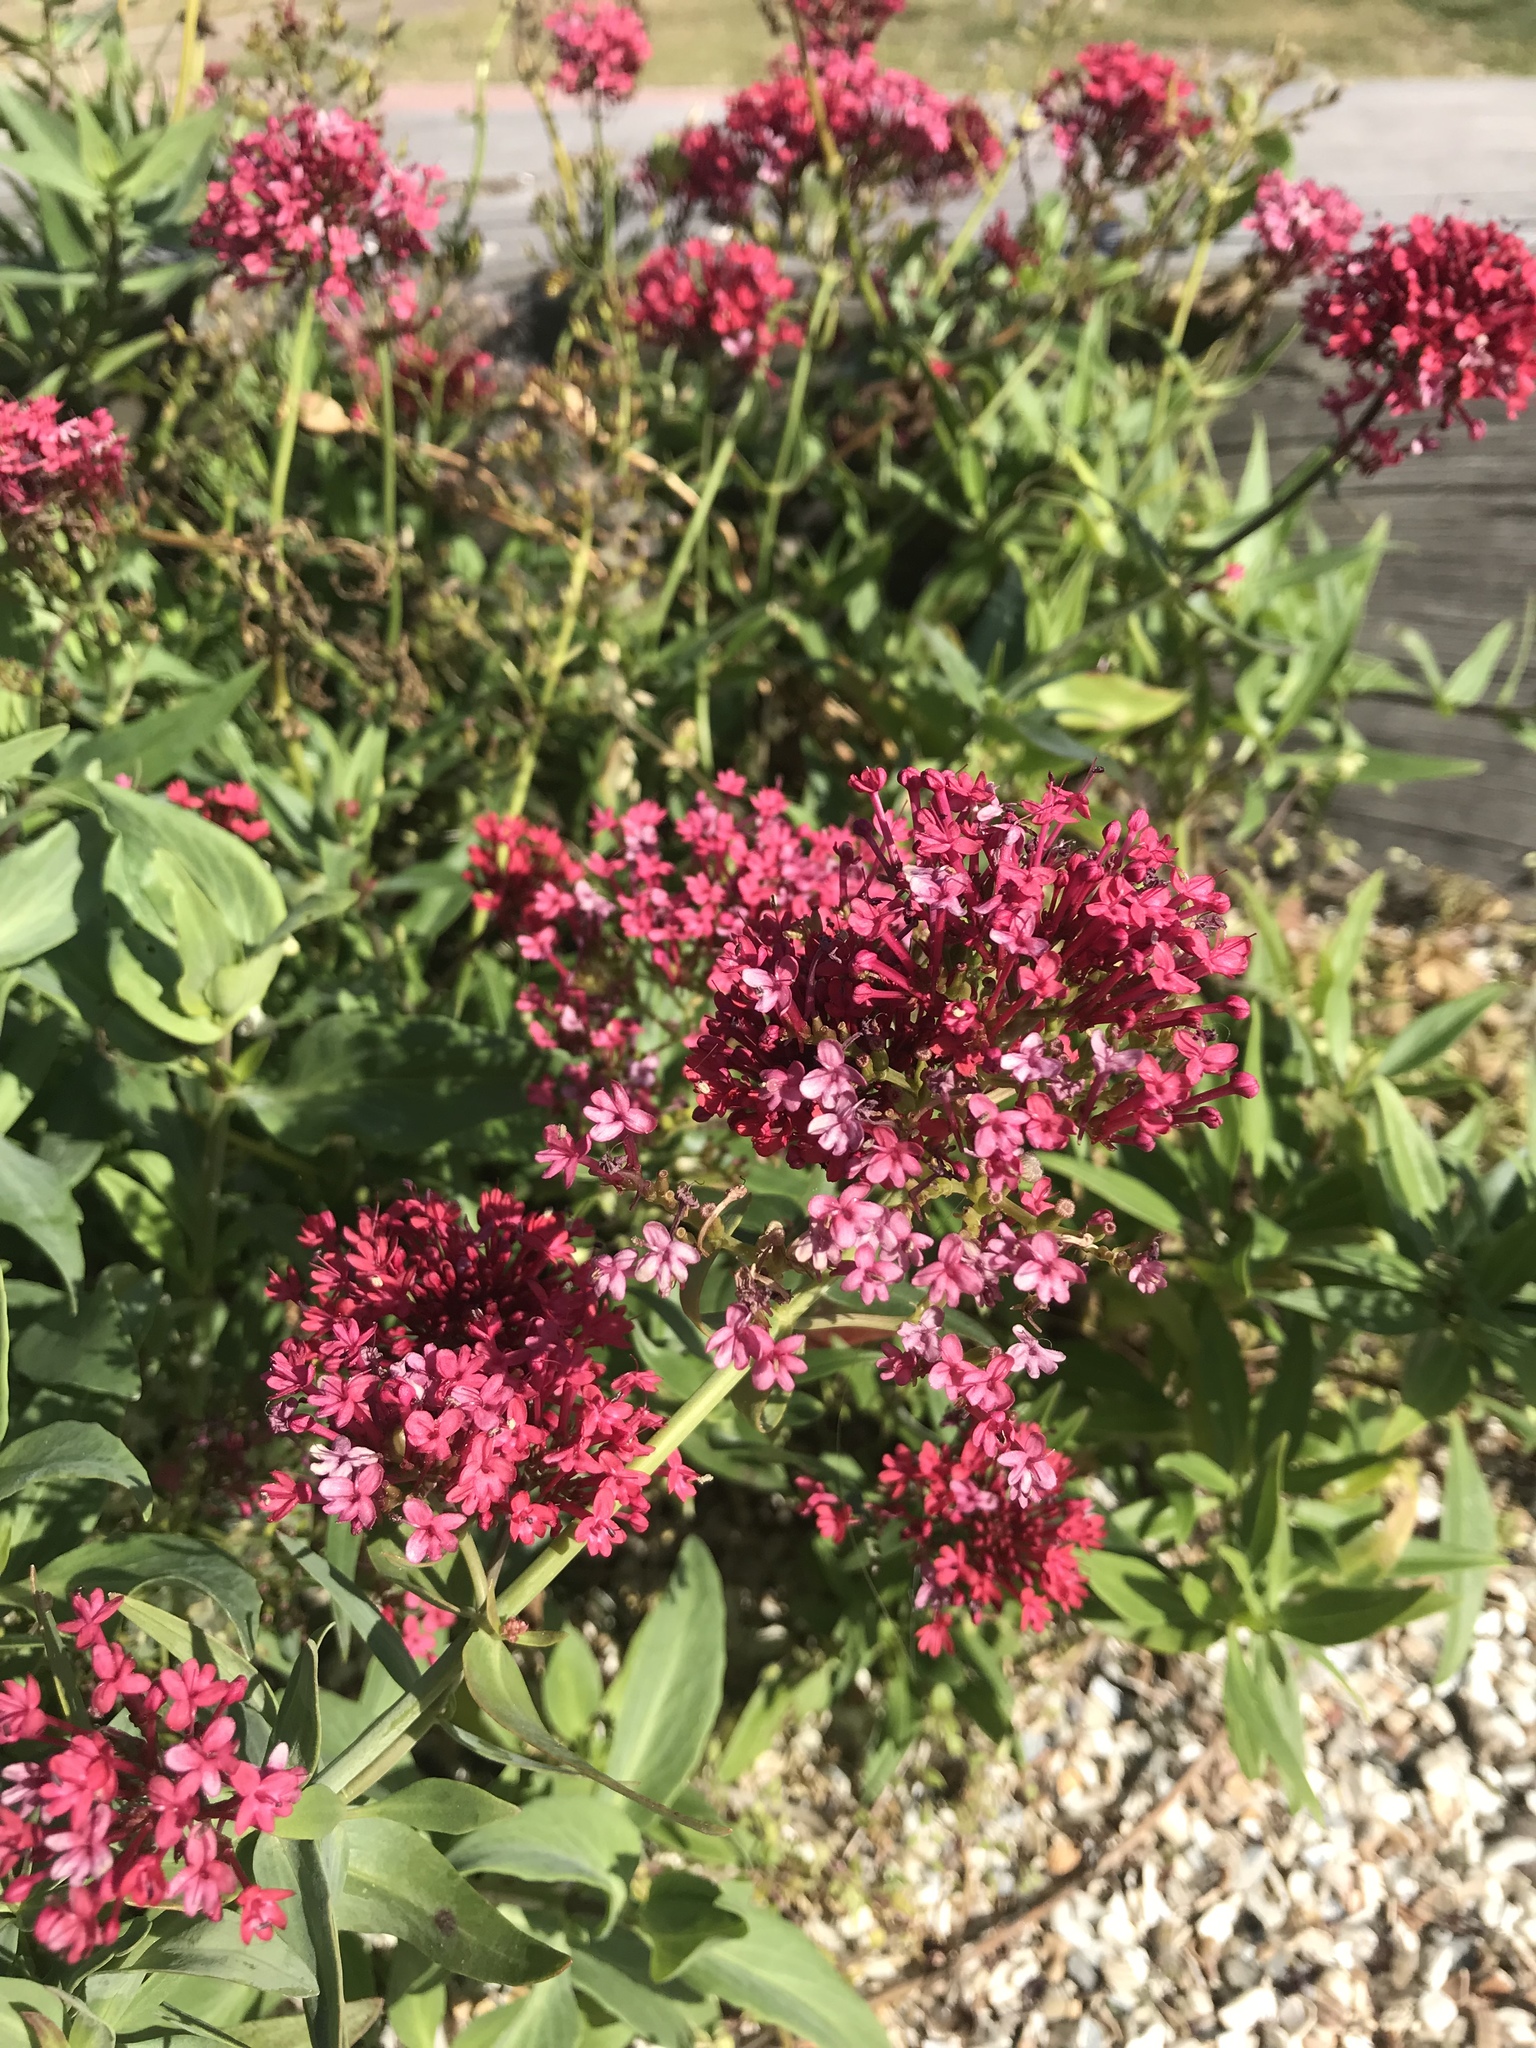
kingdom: Plantae
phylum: Tracheophyta
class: Magnoliopsida
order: Dipsacales
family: Caprifoliaceae
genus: Centranthus
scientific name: Centranthus ruber
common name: Red valerian
